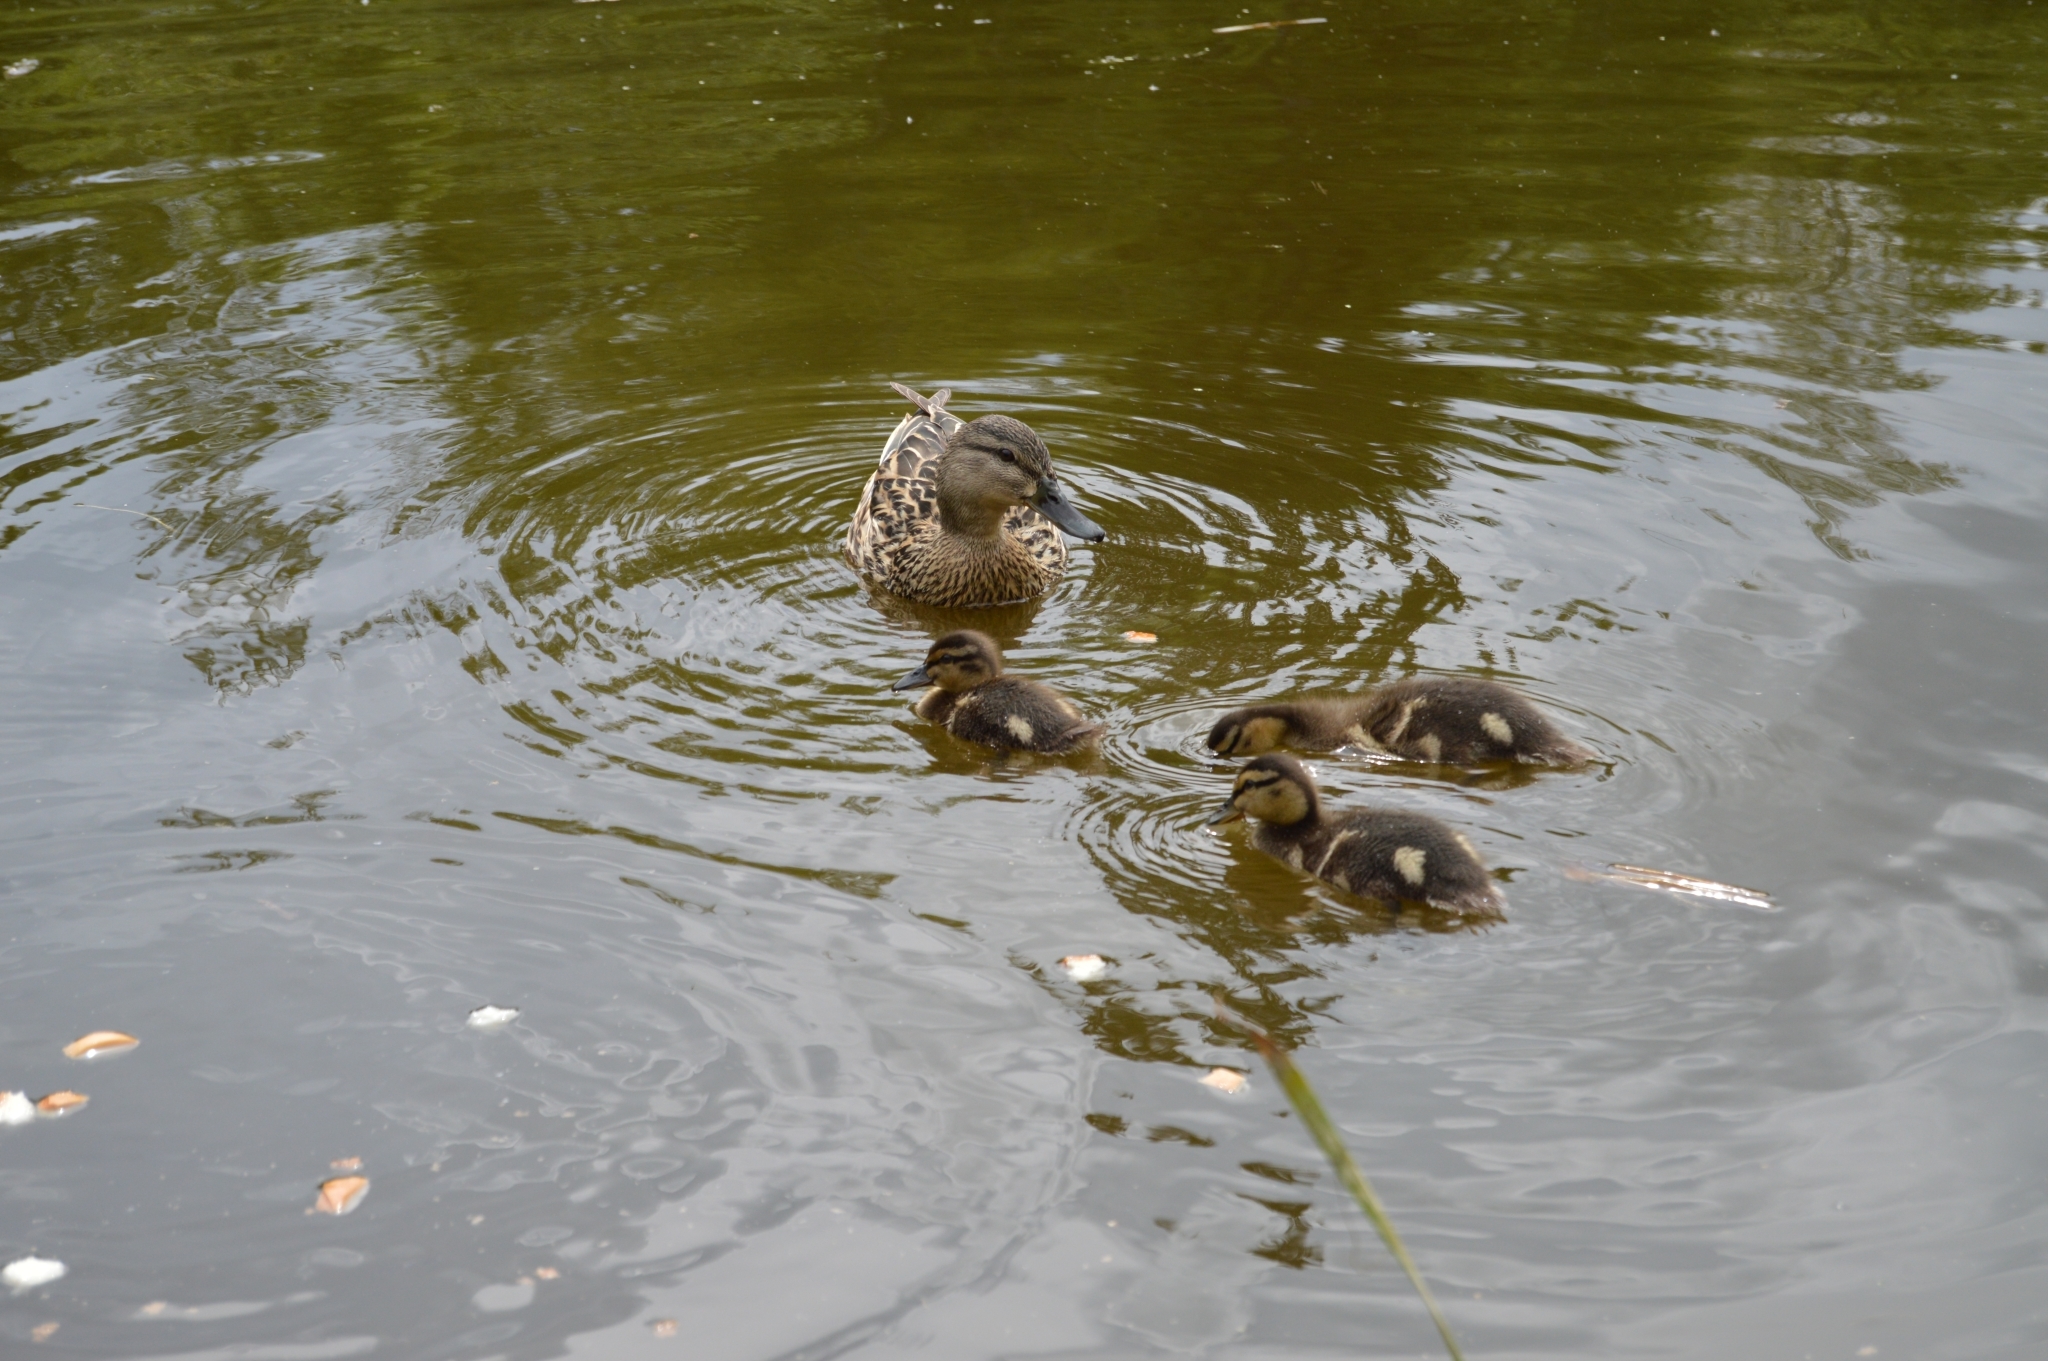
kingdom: Animalia
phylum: Chordata
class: Aves
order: Anseriformes
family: Anatidae
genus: Anas
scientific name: Anas platyrhynchos
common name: Mallard
